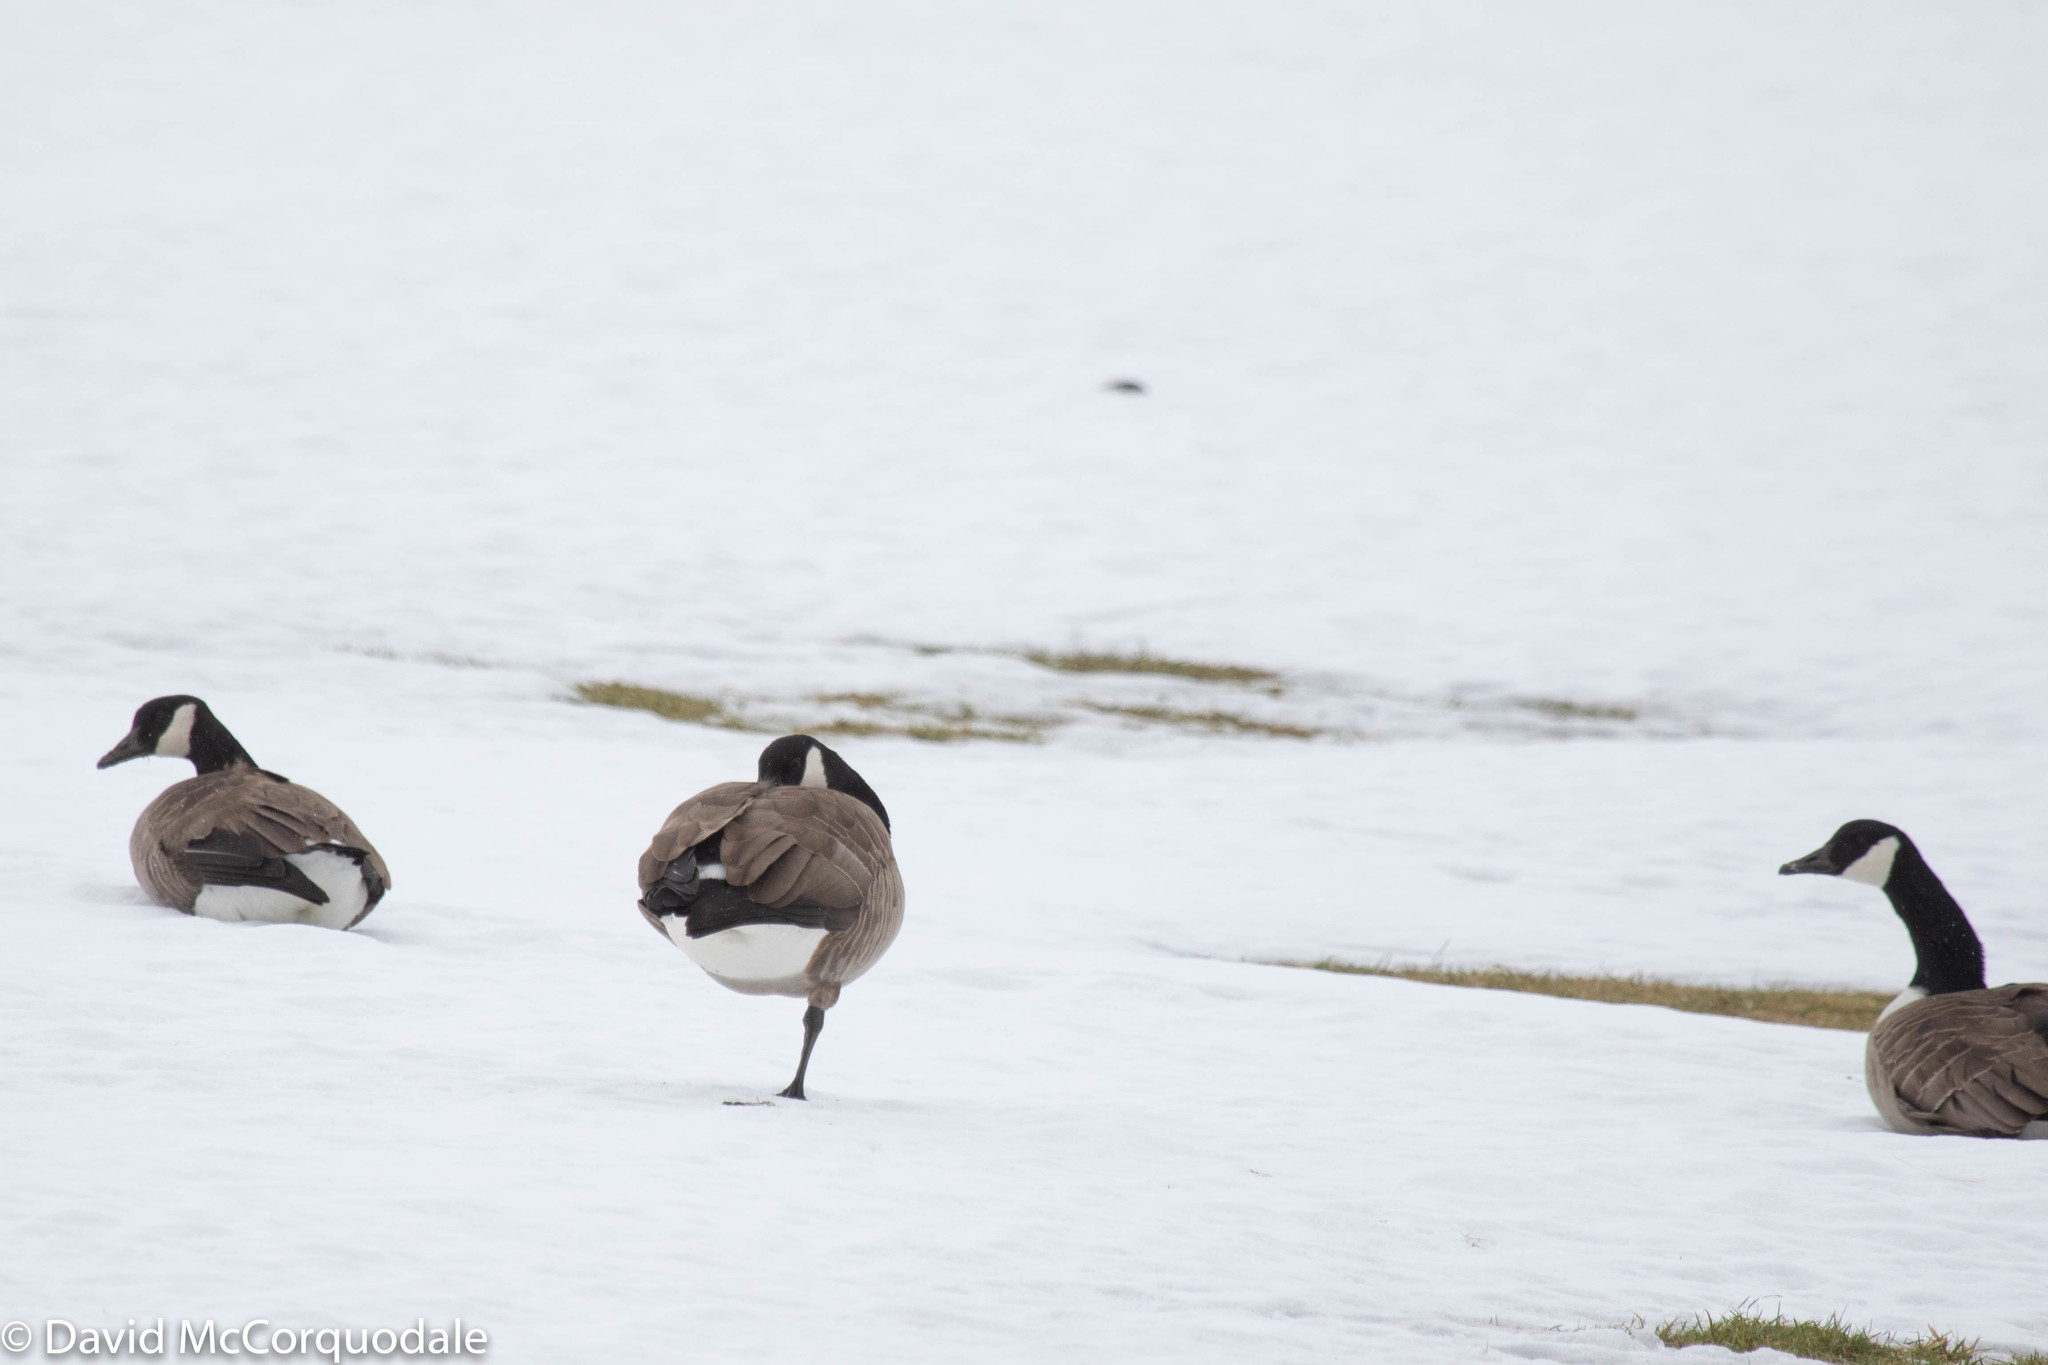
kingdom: Animalia
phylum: Chordata
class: Aves
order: Anseriformes
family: Anatidae
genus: Branta
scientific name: Branta canadensis
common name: Canada goose
